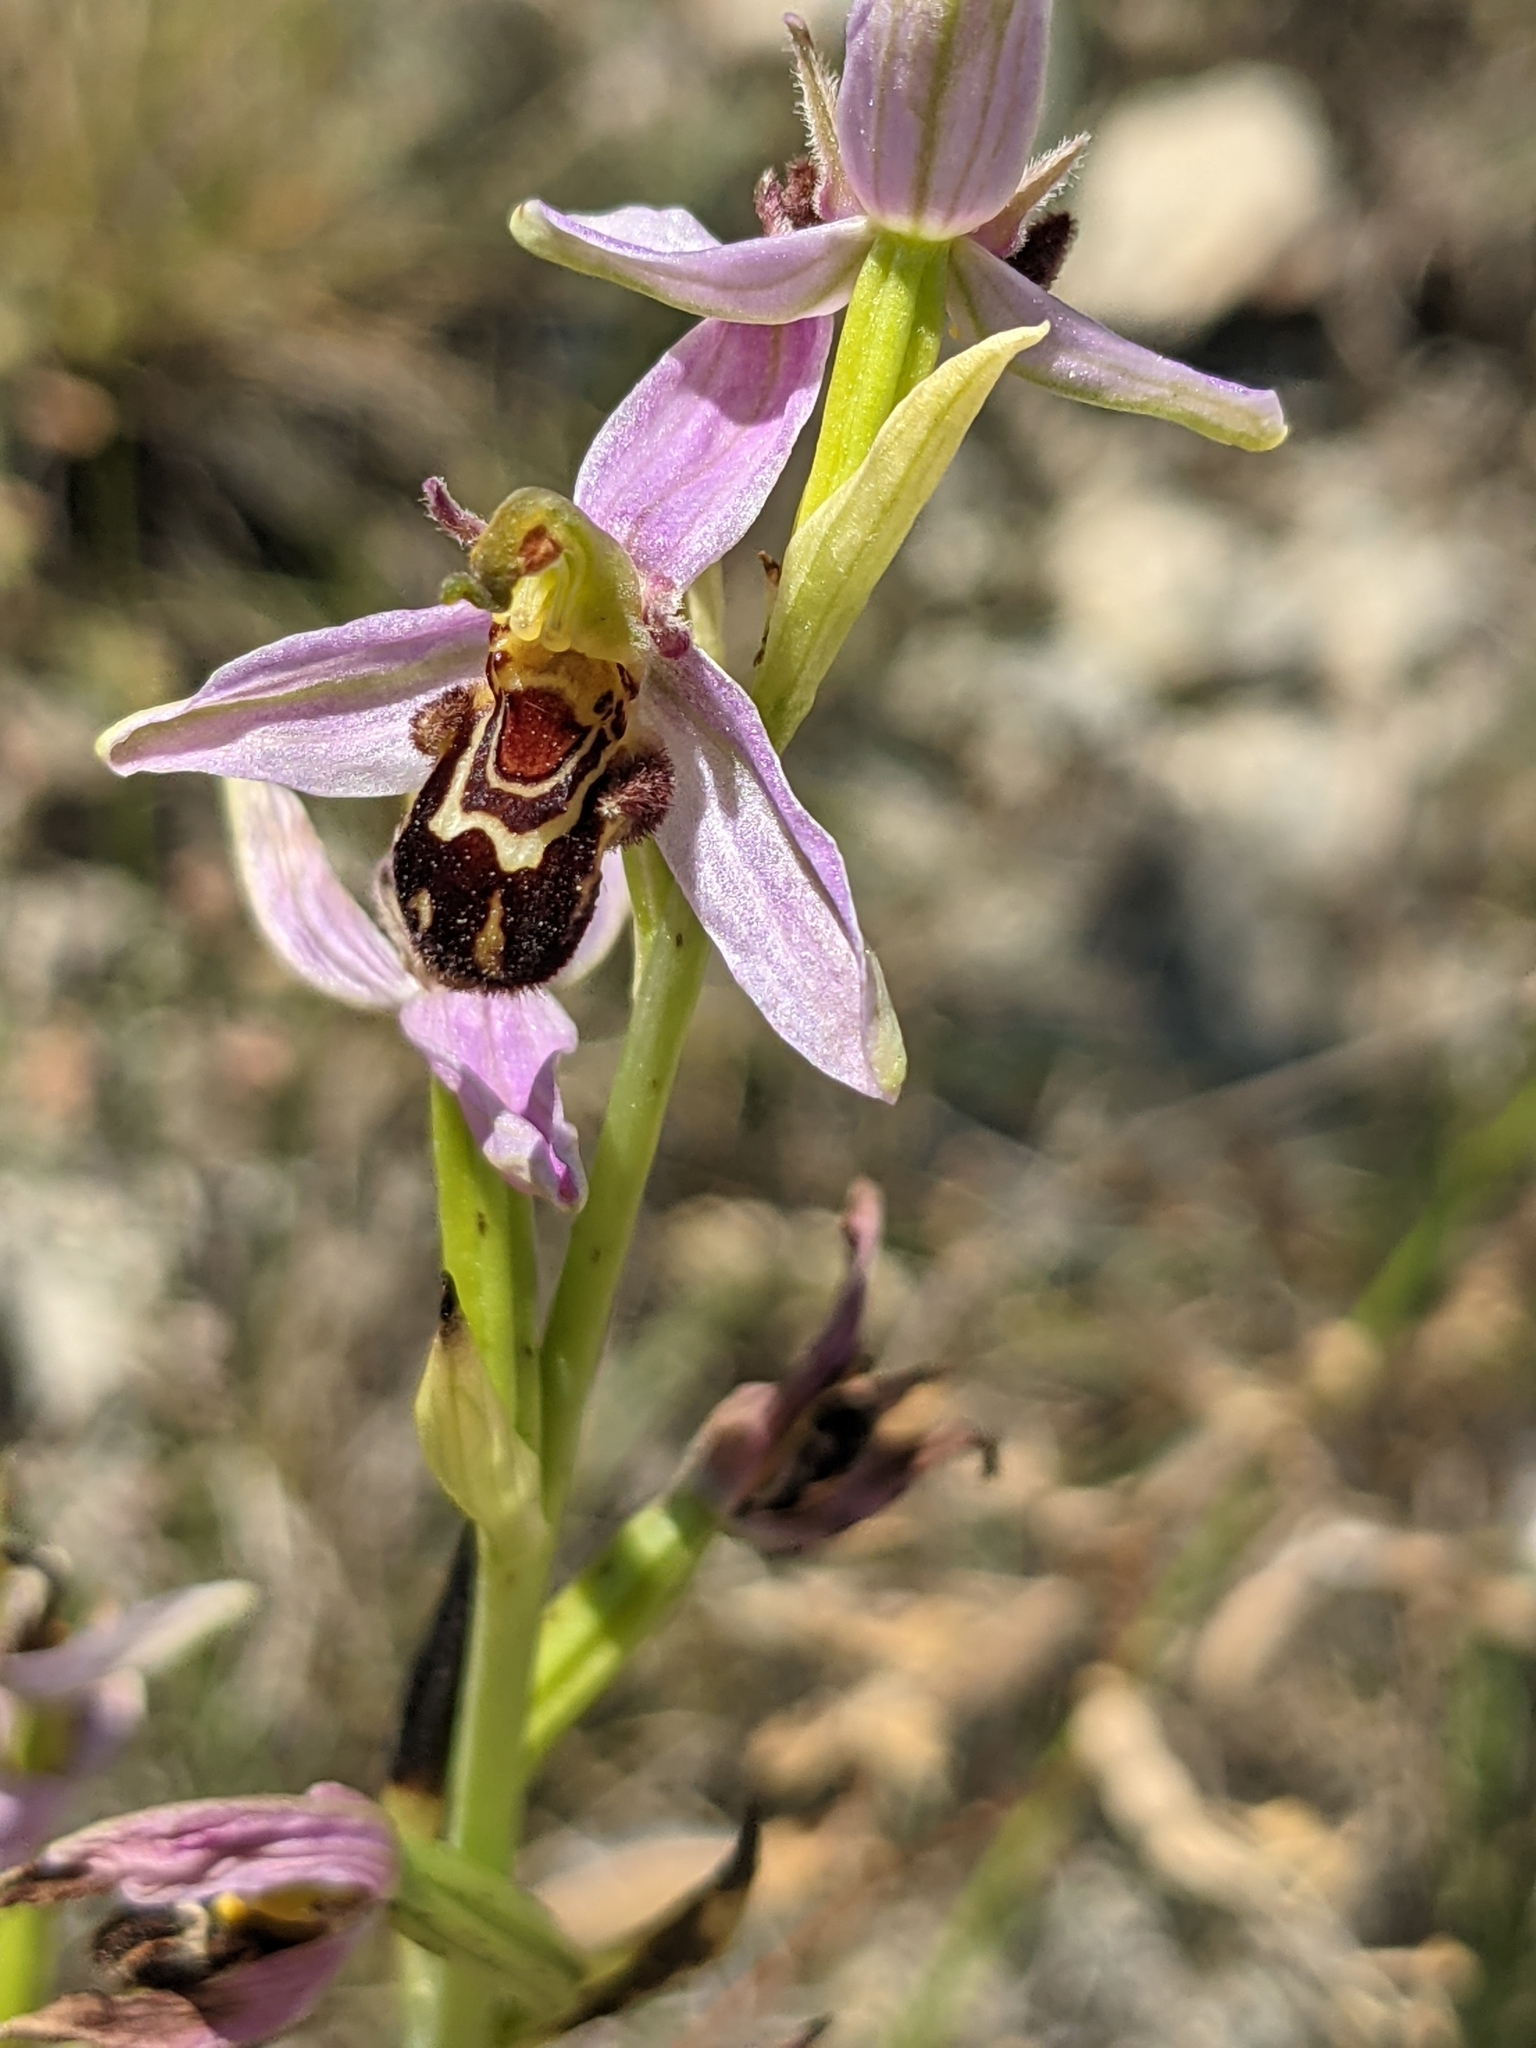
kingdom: Plantae
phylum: Tracheophyta
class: Liliopsida
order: Asparagales
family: Orchidaceae
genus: Ophrys
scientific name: Ophrys apifera
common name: Bee orchid
